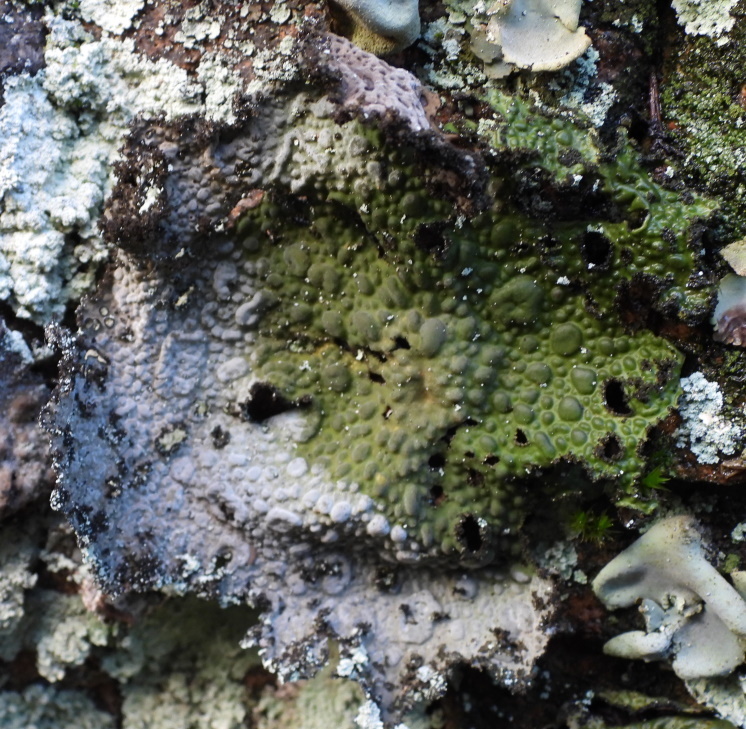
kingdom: Fungi
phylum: Ascomycota
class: Lecanoromycetes
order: Umbilicariales
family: Umbilicariaceae
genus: Lasallia
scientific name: Lasallia pustulata
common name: Blistered toadskin lichen
